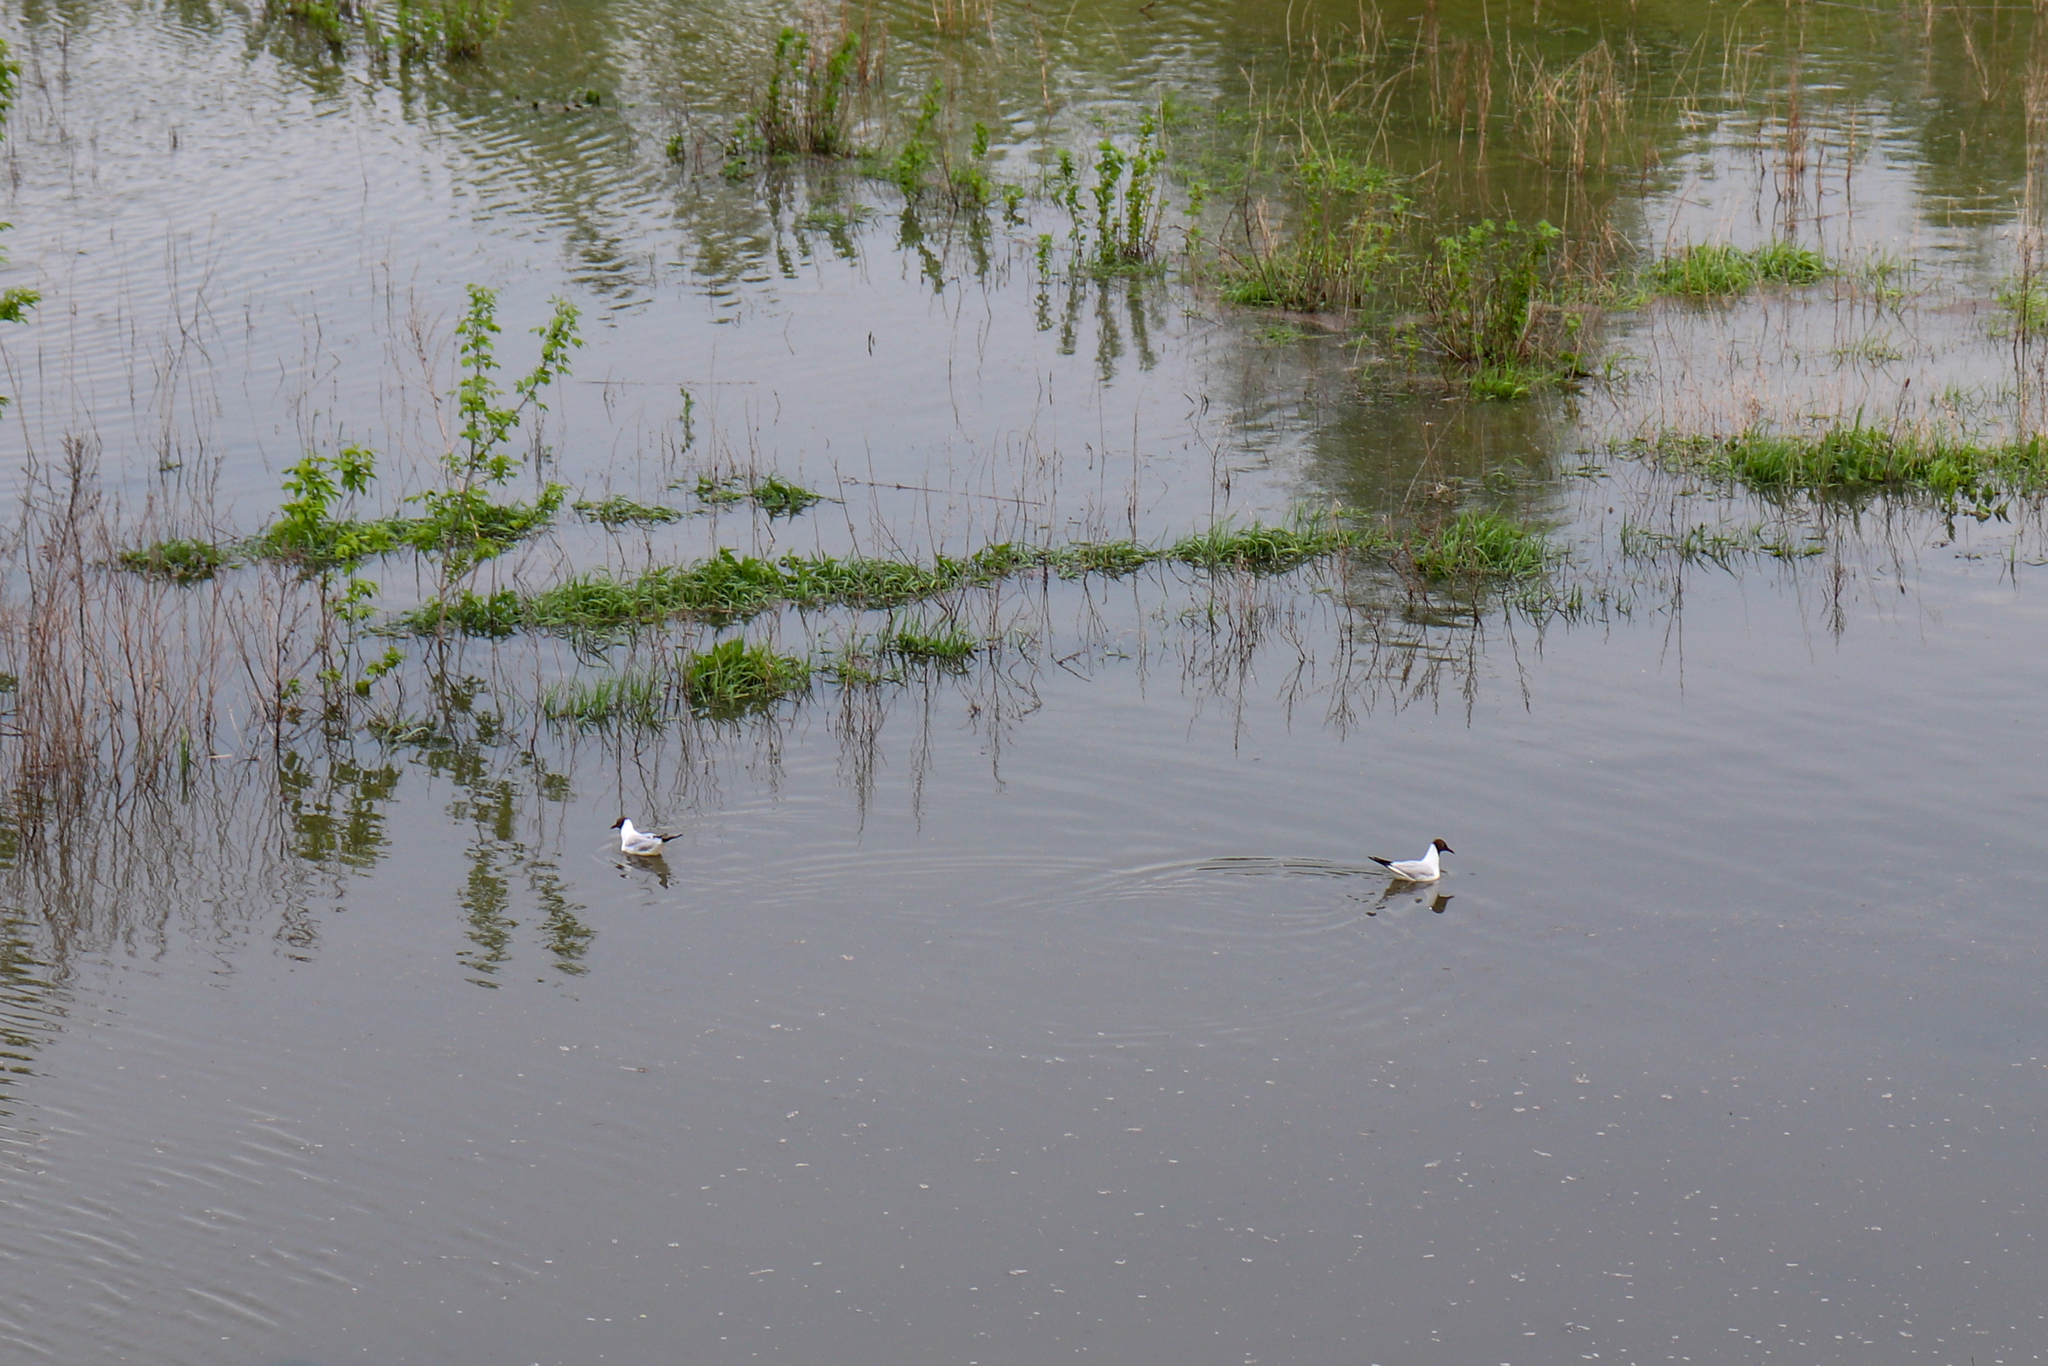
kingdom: Animalia
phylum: Chordata
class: Aves
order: Charadriiformes
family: Laridae
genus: Chroicocephalus
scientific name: Chroicocephalus ridibundus
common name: Black-headed gull
